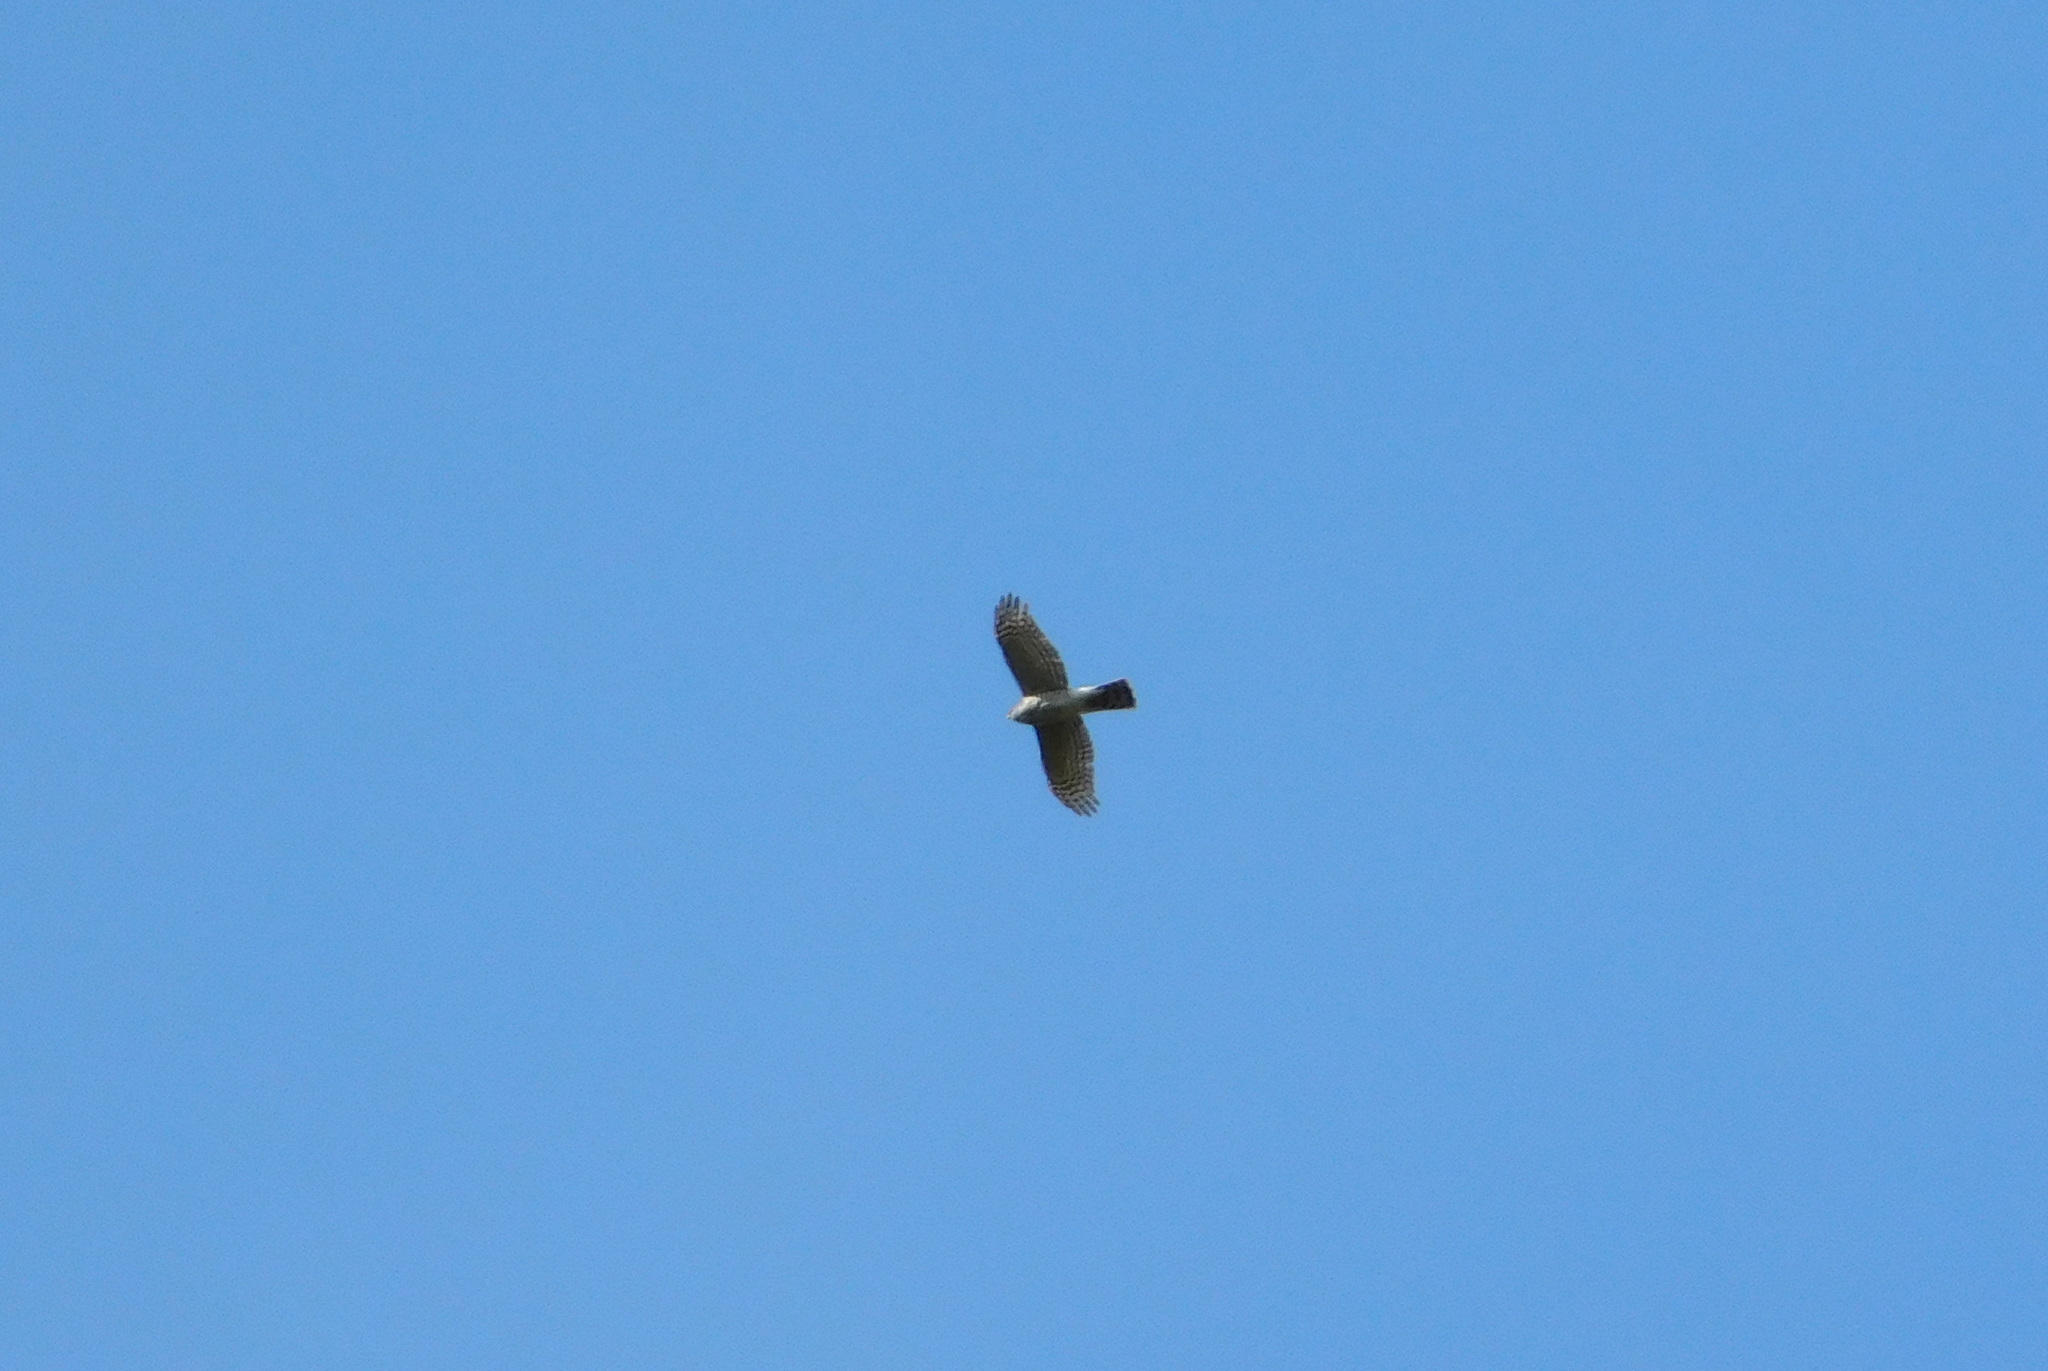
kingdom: Animalia
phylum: Chordata
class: Aves
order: Accipitriformes
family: Accipitridae
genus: Accipiter
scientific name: Accipiter nisus
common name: Eurasian sparrowhawk
